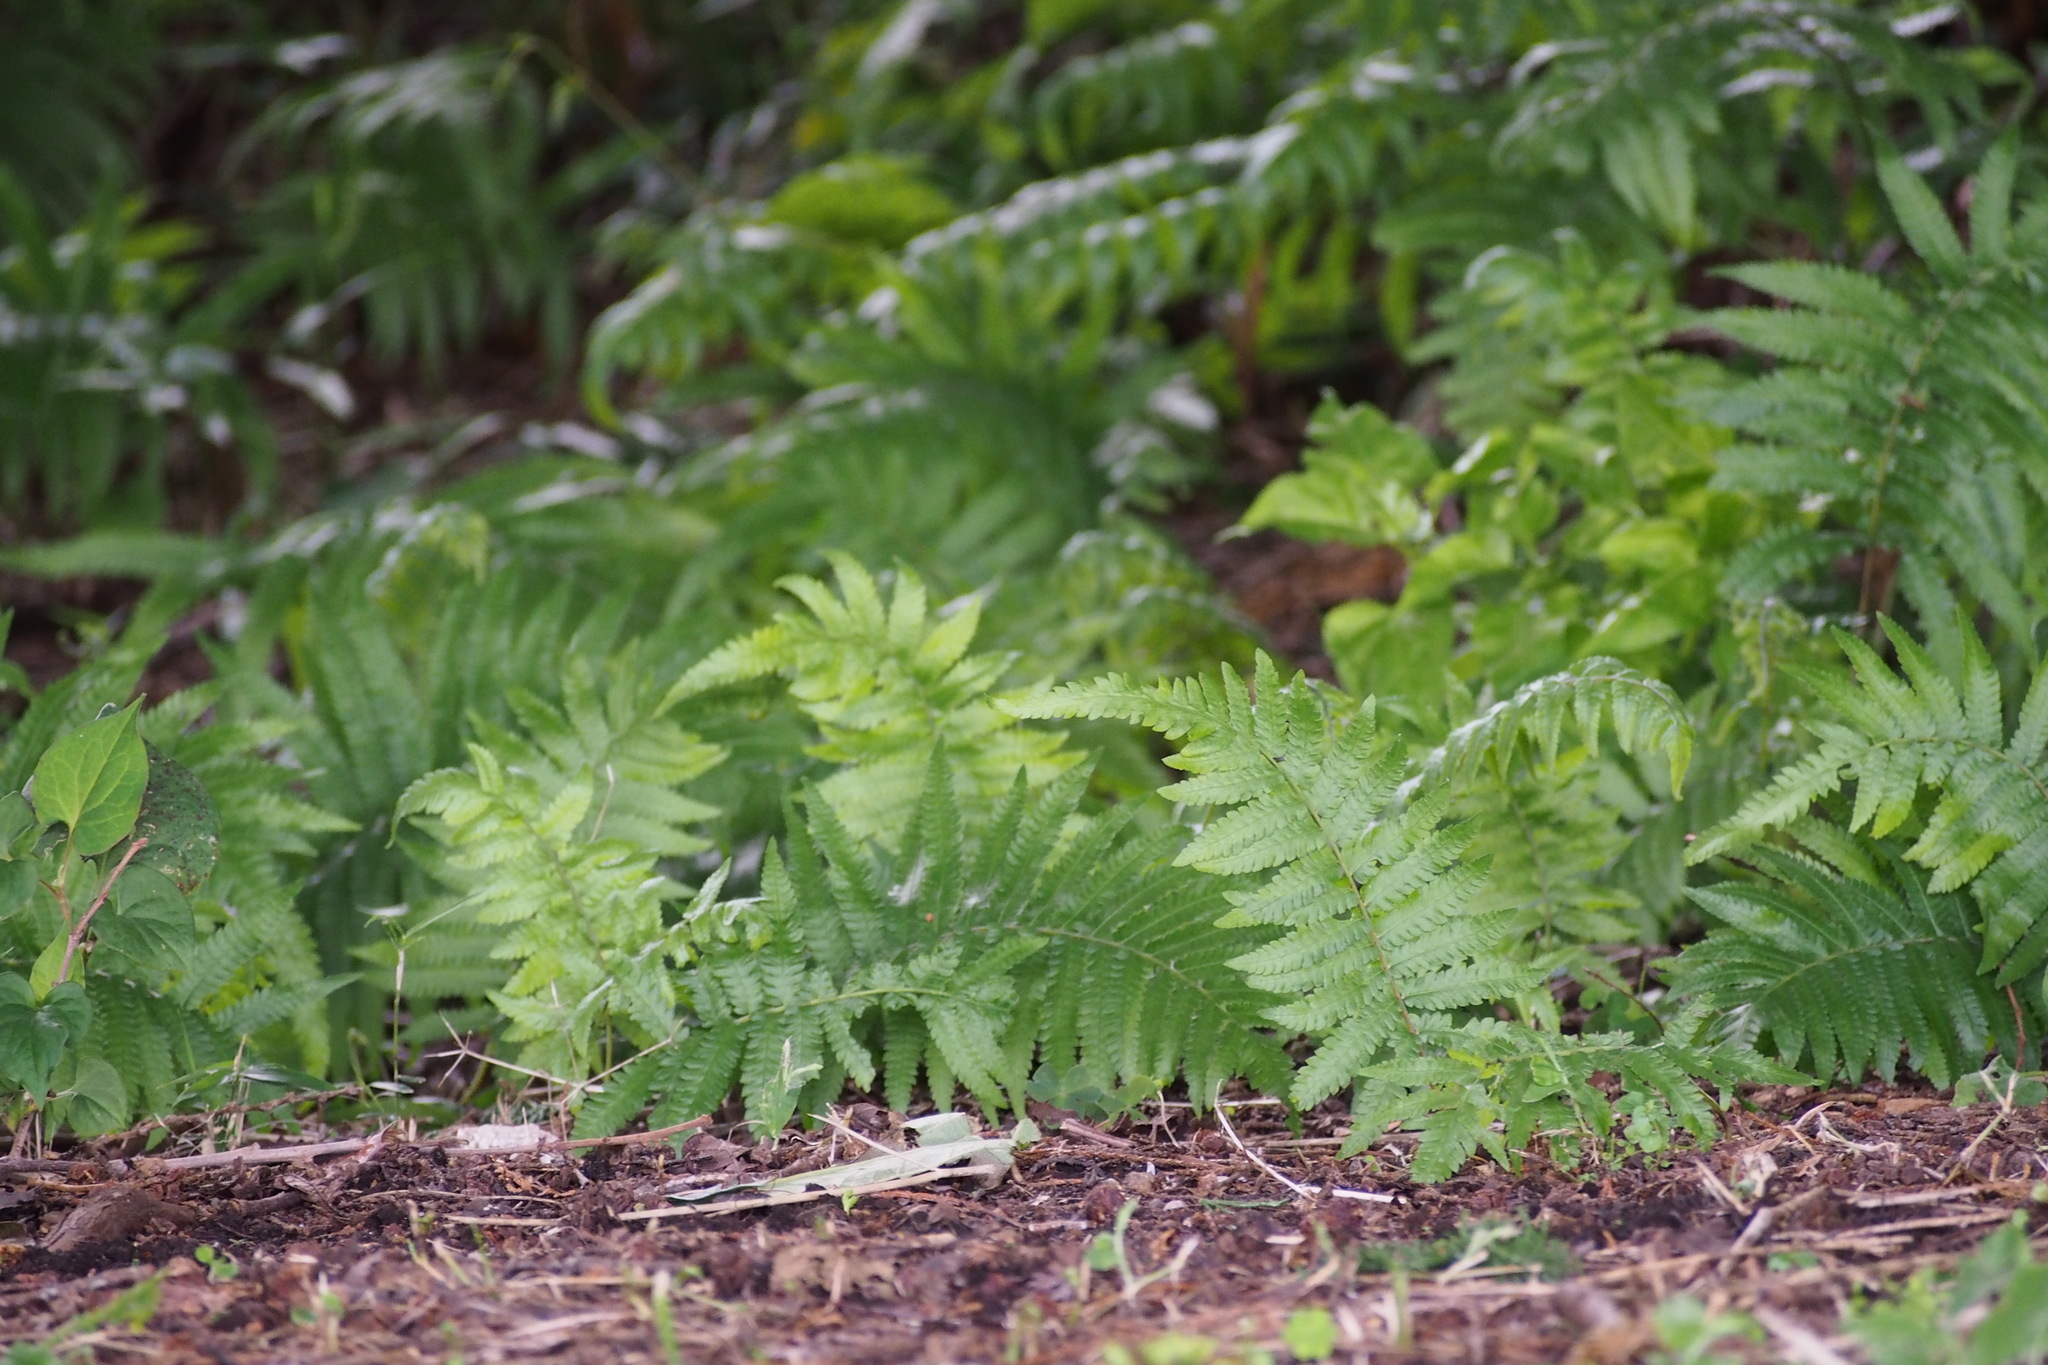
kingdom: Plantae
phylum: Tracheophyta
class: Polypodiopsida
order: Polypodiales
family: Thelypteridaceae
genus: Christella
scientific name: Christella acuminata
